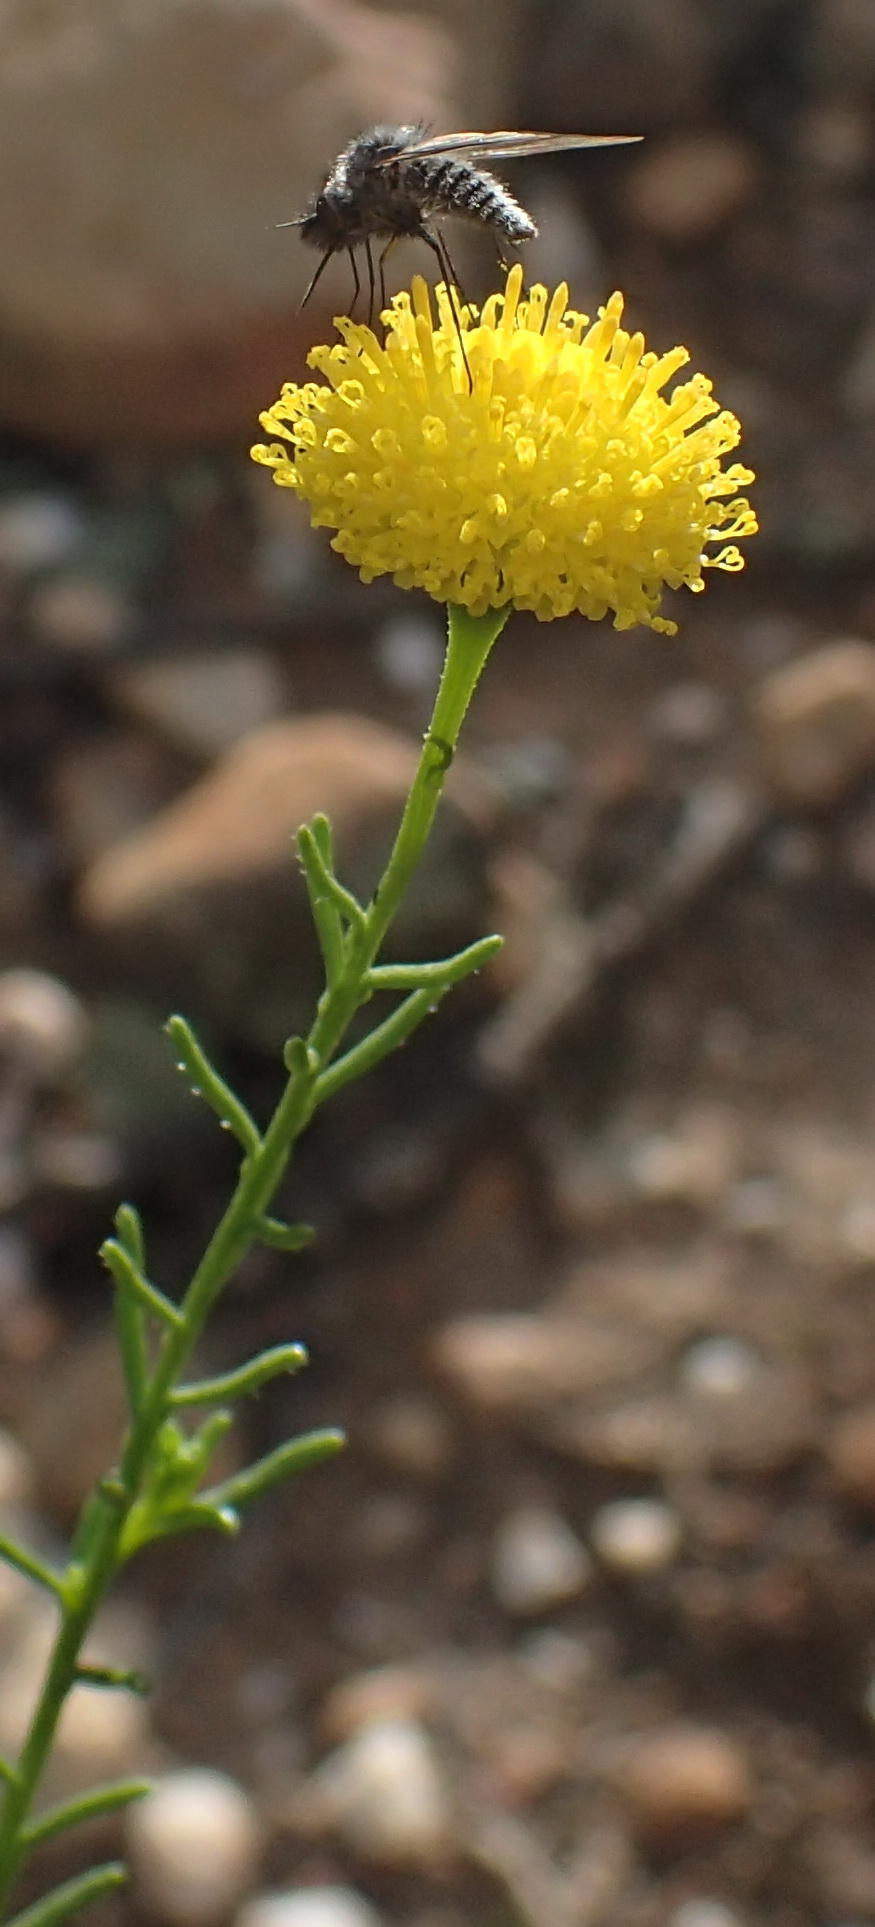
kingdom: Plantae
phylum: Tracheophyta
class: Magnoliopsida
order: Asterales
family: Asteraceae
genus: Chrysocoma
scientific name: Chrysocoma ciliata
